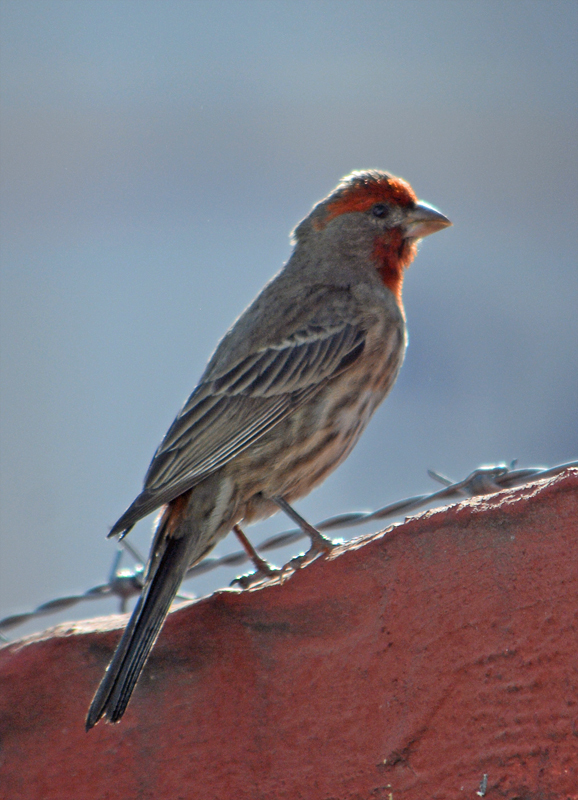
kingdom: Animalia
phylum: Chordata
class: Aves
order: Passeriformes
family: Fringillidae
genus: Haemorhous
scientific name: Haemorhous mexicanus
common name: House finch
